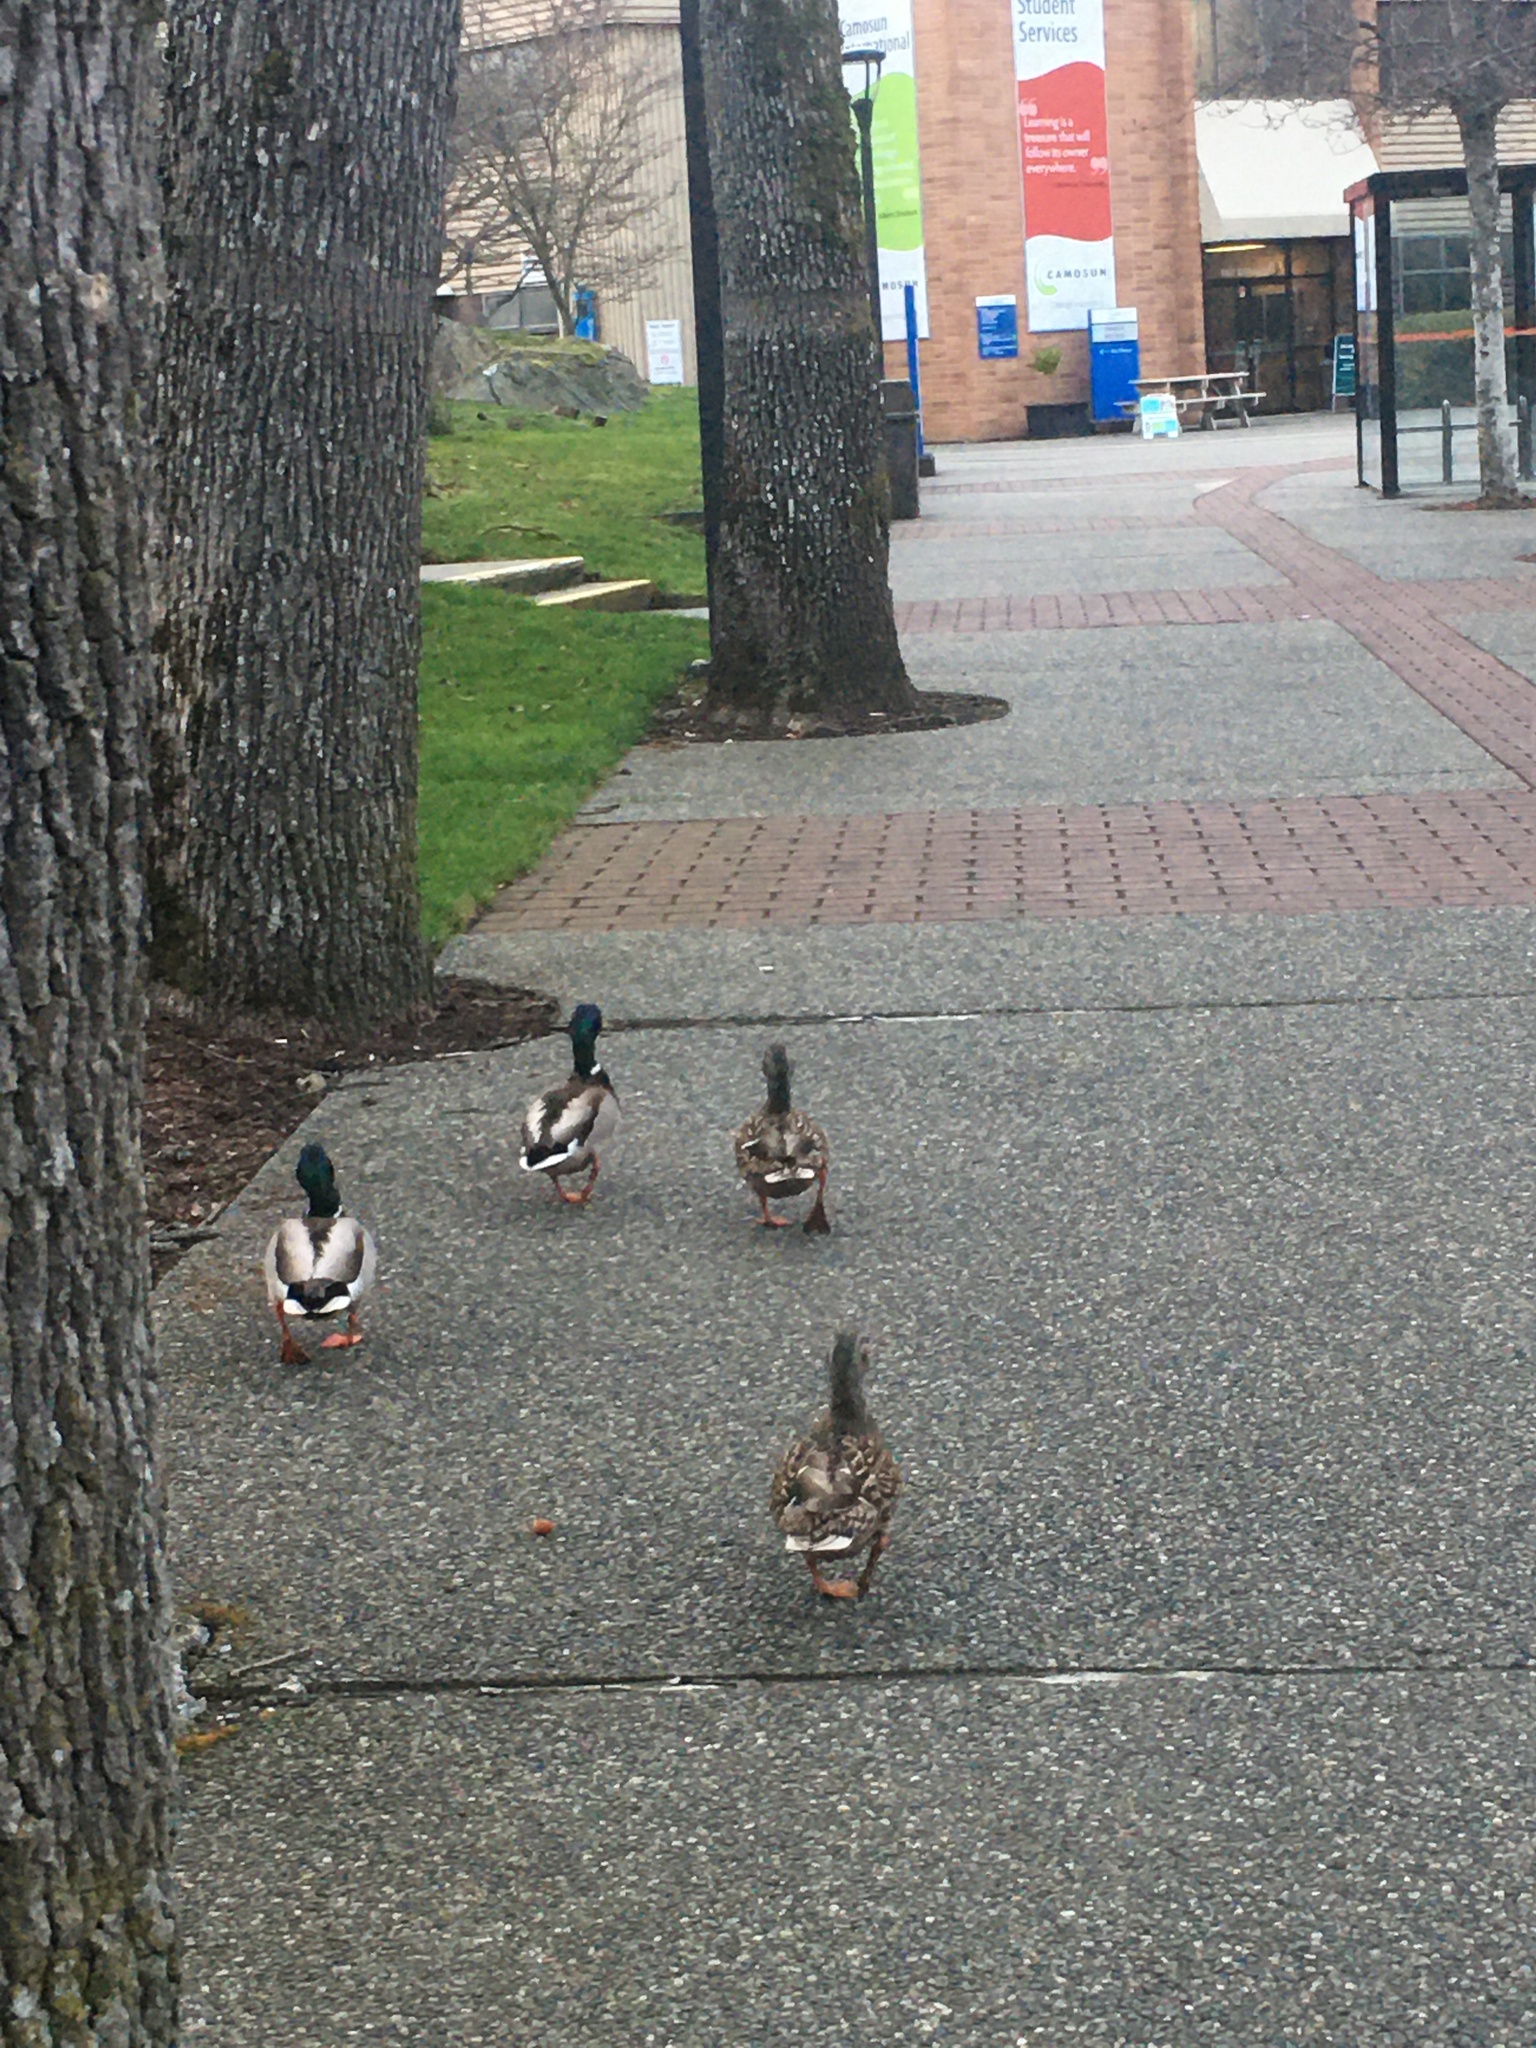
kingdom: Animalia
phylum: Chordata
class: Aves
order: Anseriformes
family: Anatidae
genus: Anas
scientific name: Anas platyrhynchos
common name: Mallard
